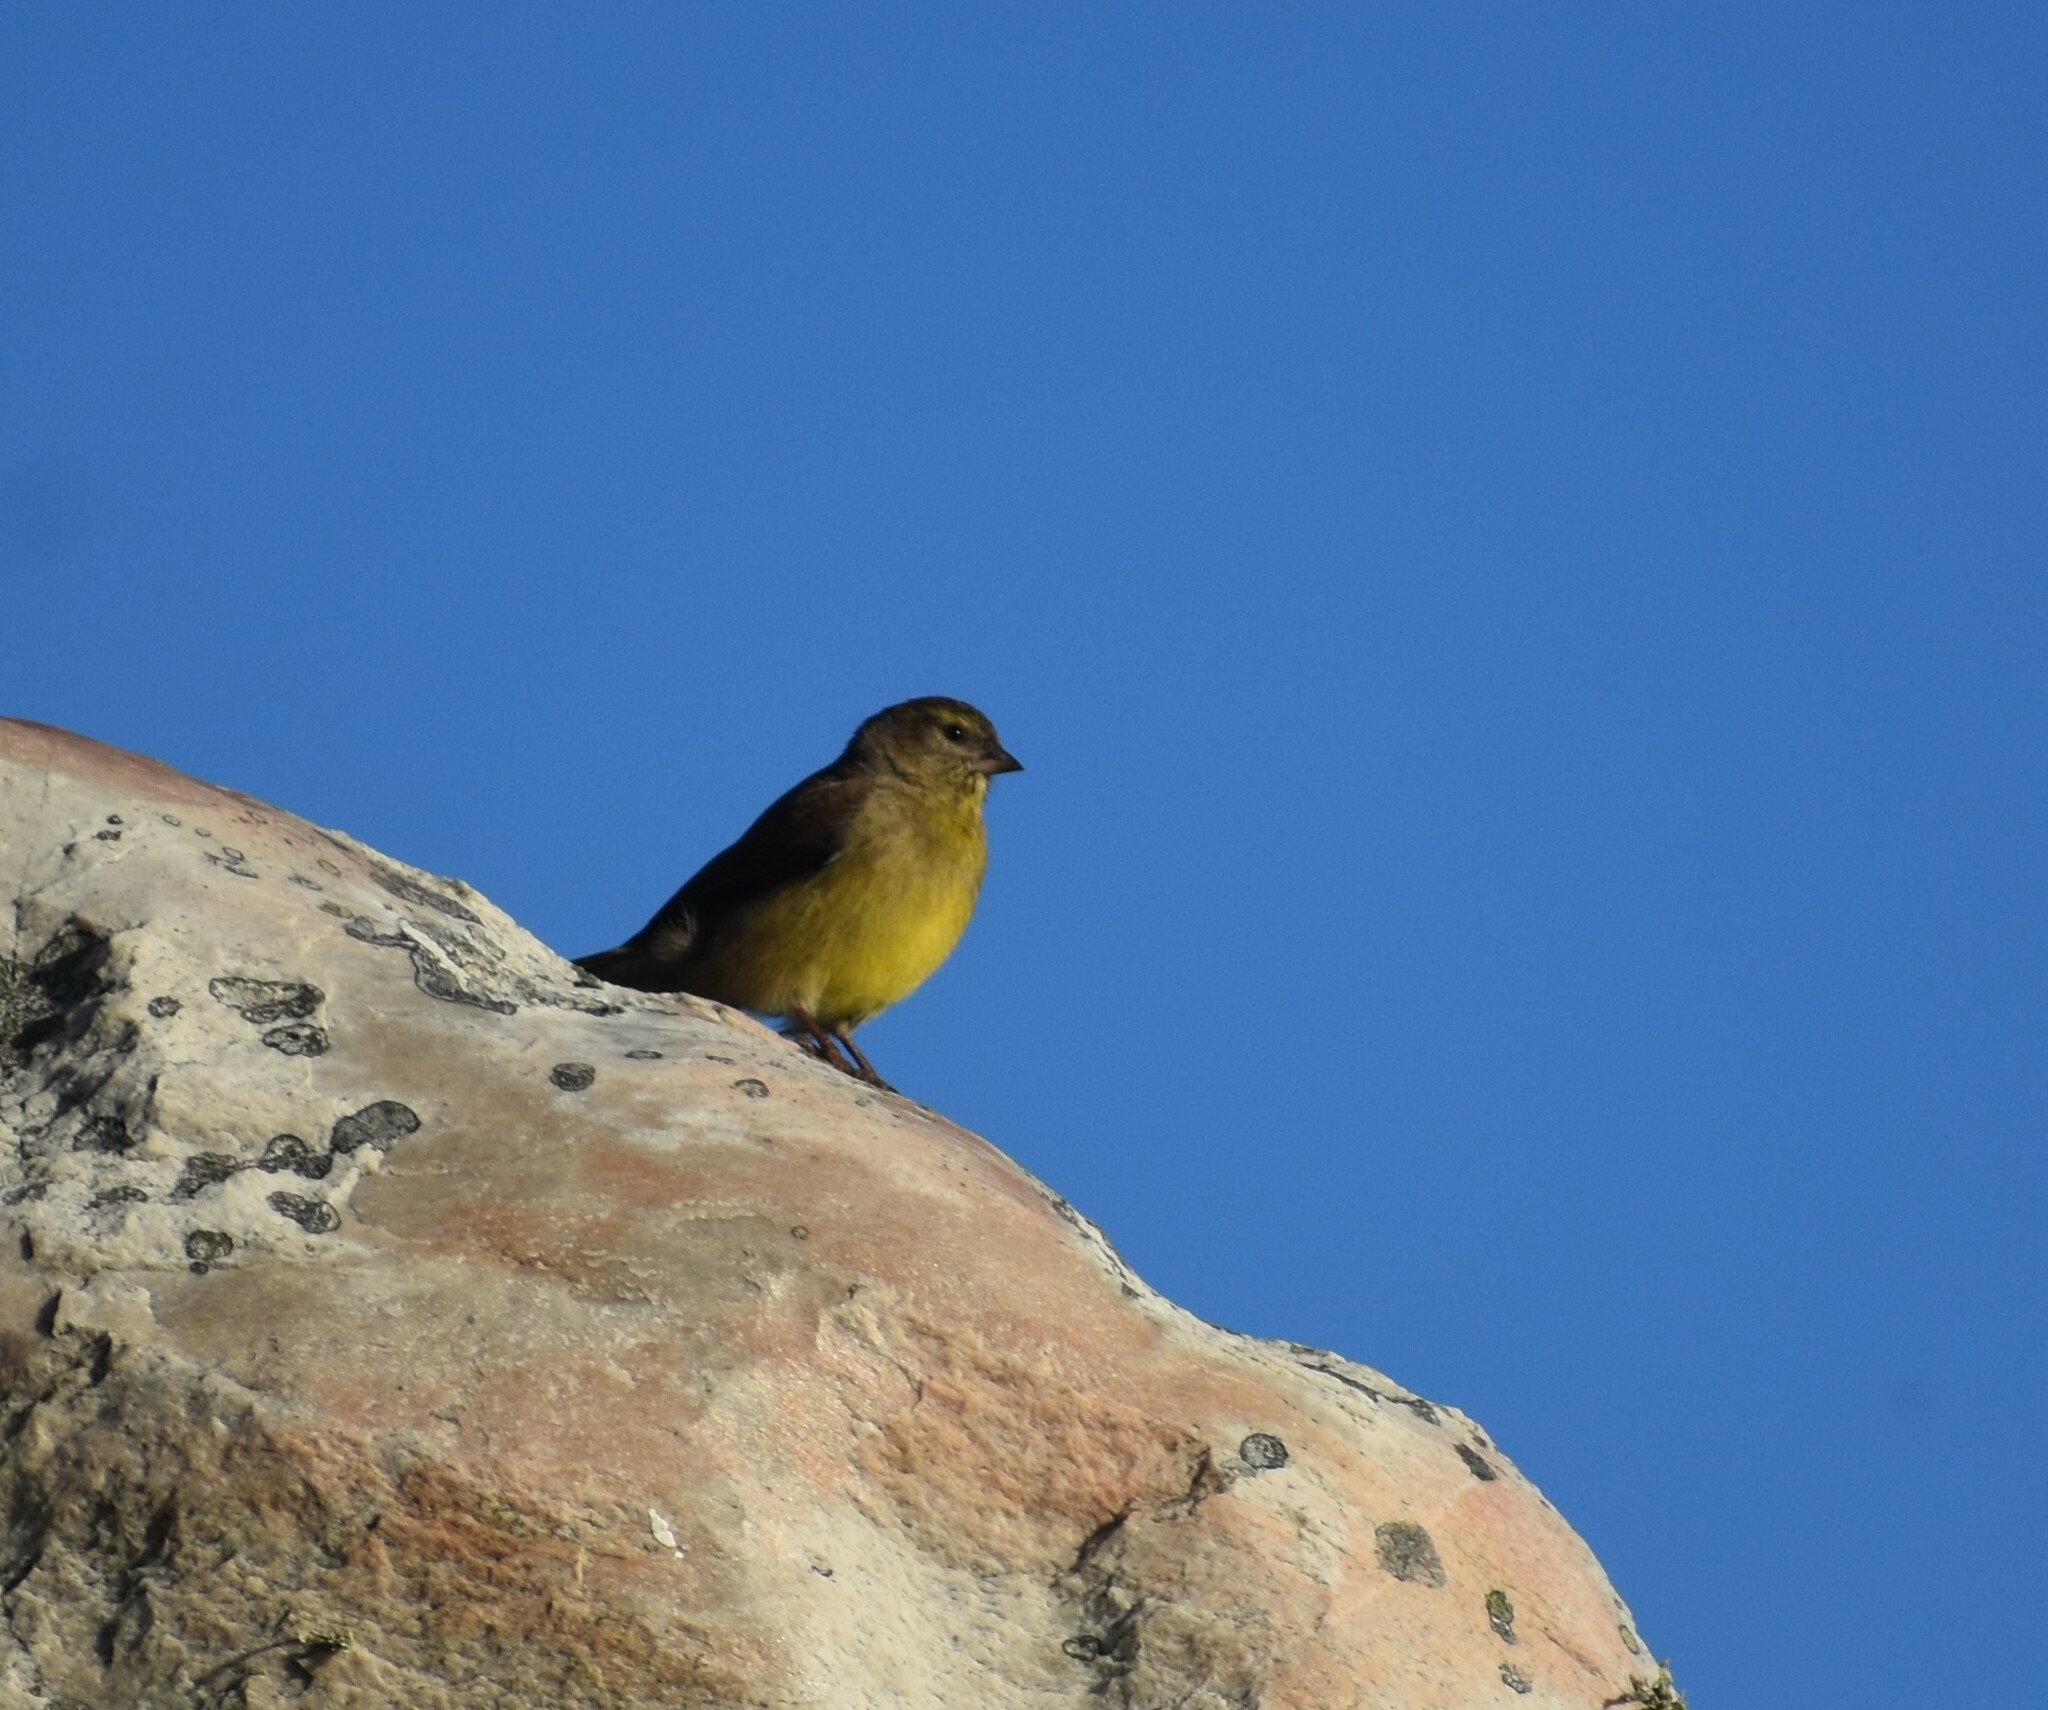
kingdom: Animalia
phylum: Chordata
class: Aves
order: Passeriformes
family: Fringillidae
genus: Crithagra
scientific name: Crithagra totta
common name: Cape siskin
